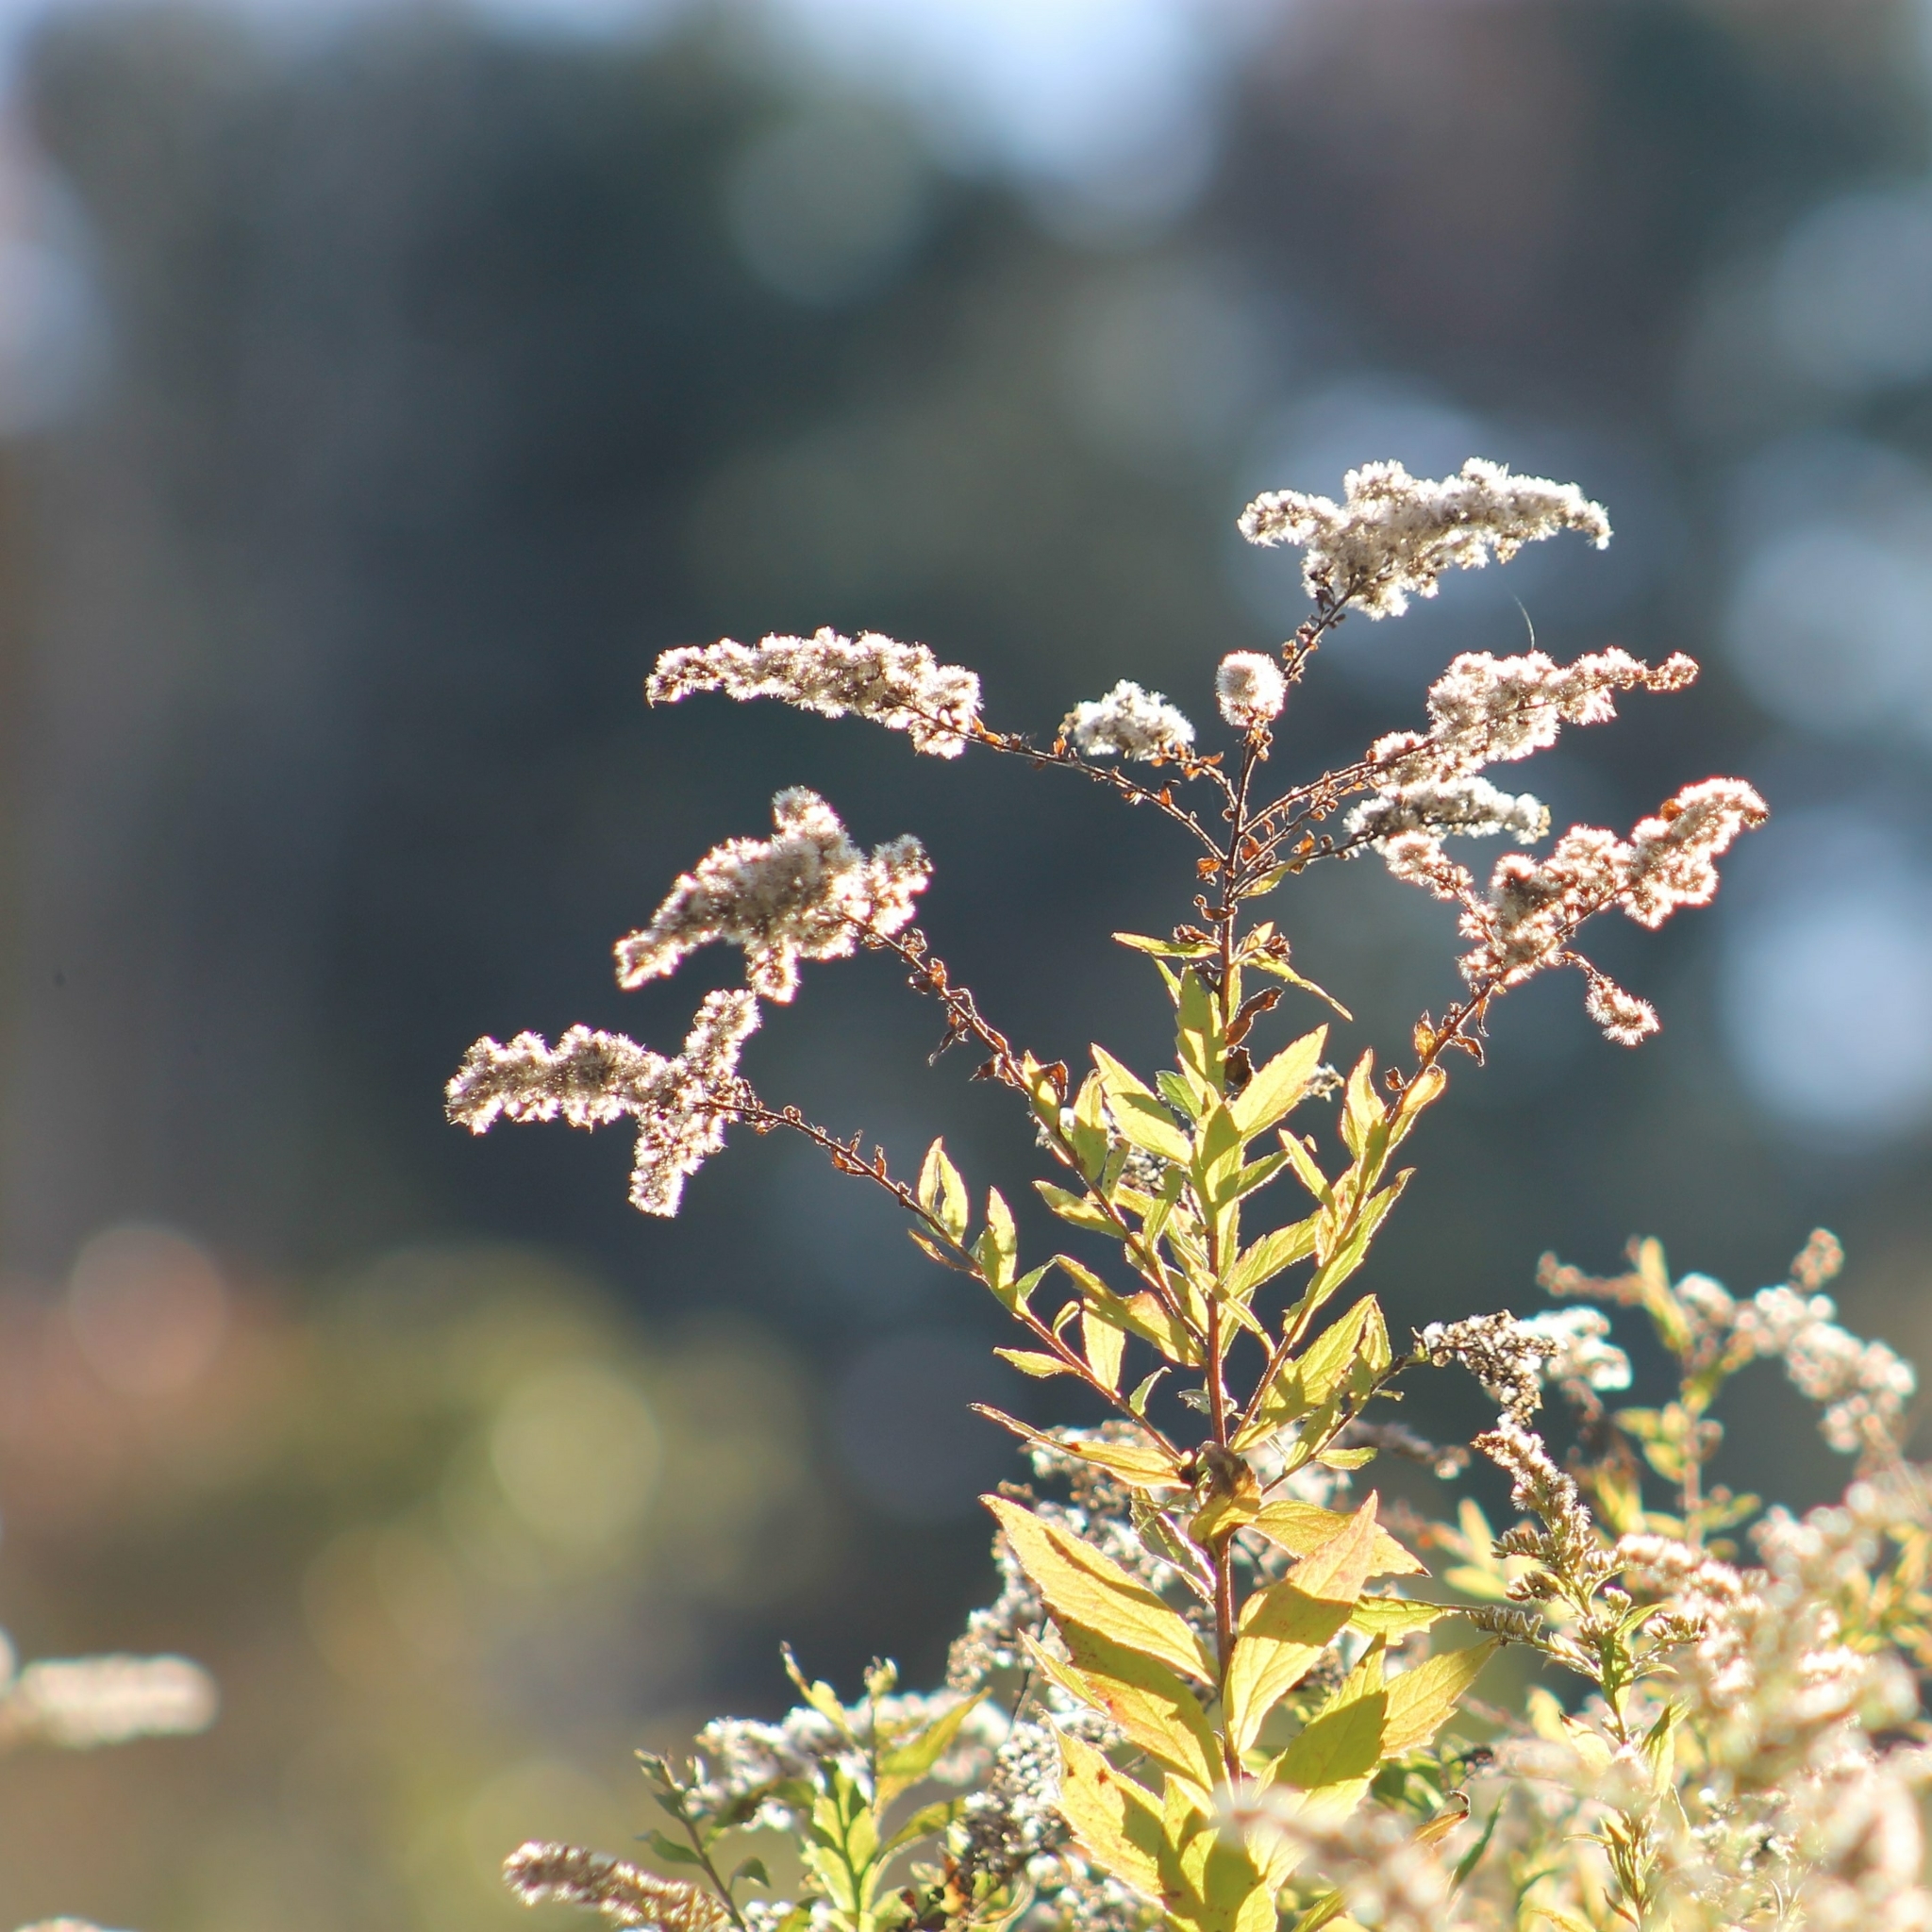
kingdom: Plantae
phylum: Tracheophyta
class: Magnoliopsida
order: Asterales
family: Asteraceae
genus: Solidago
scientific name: Solidago rugosa
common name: Rough-stemmed goldenrod
